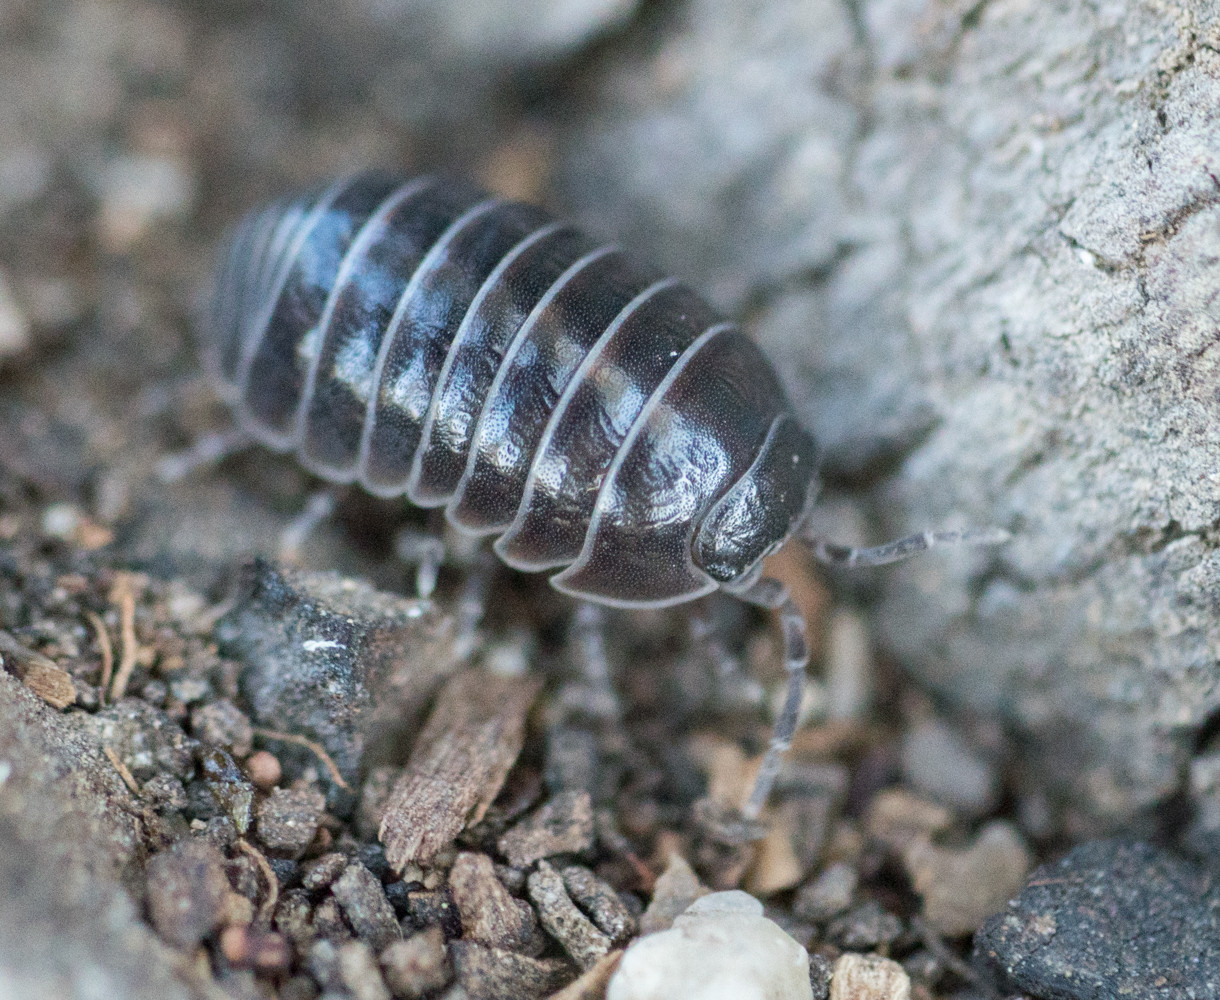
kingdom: Animalia
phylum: Arthropoda
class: Malacostraca
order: Isopoda
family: Armadillidiidae
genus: Armadillidium
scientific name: Armadillidium vulgare
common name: Common pill woodlouse
